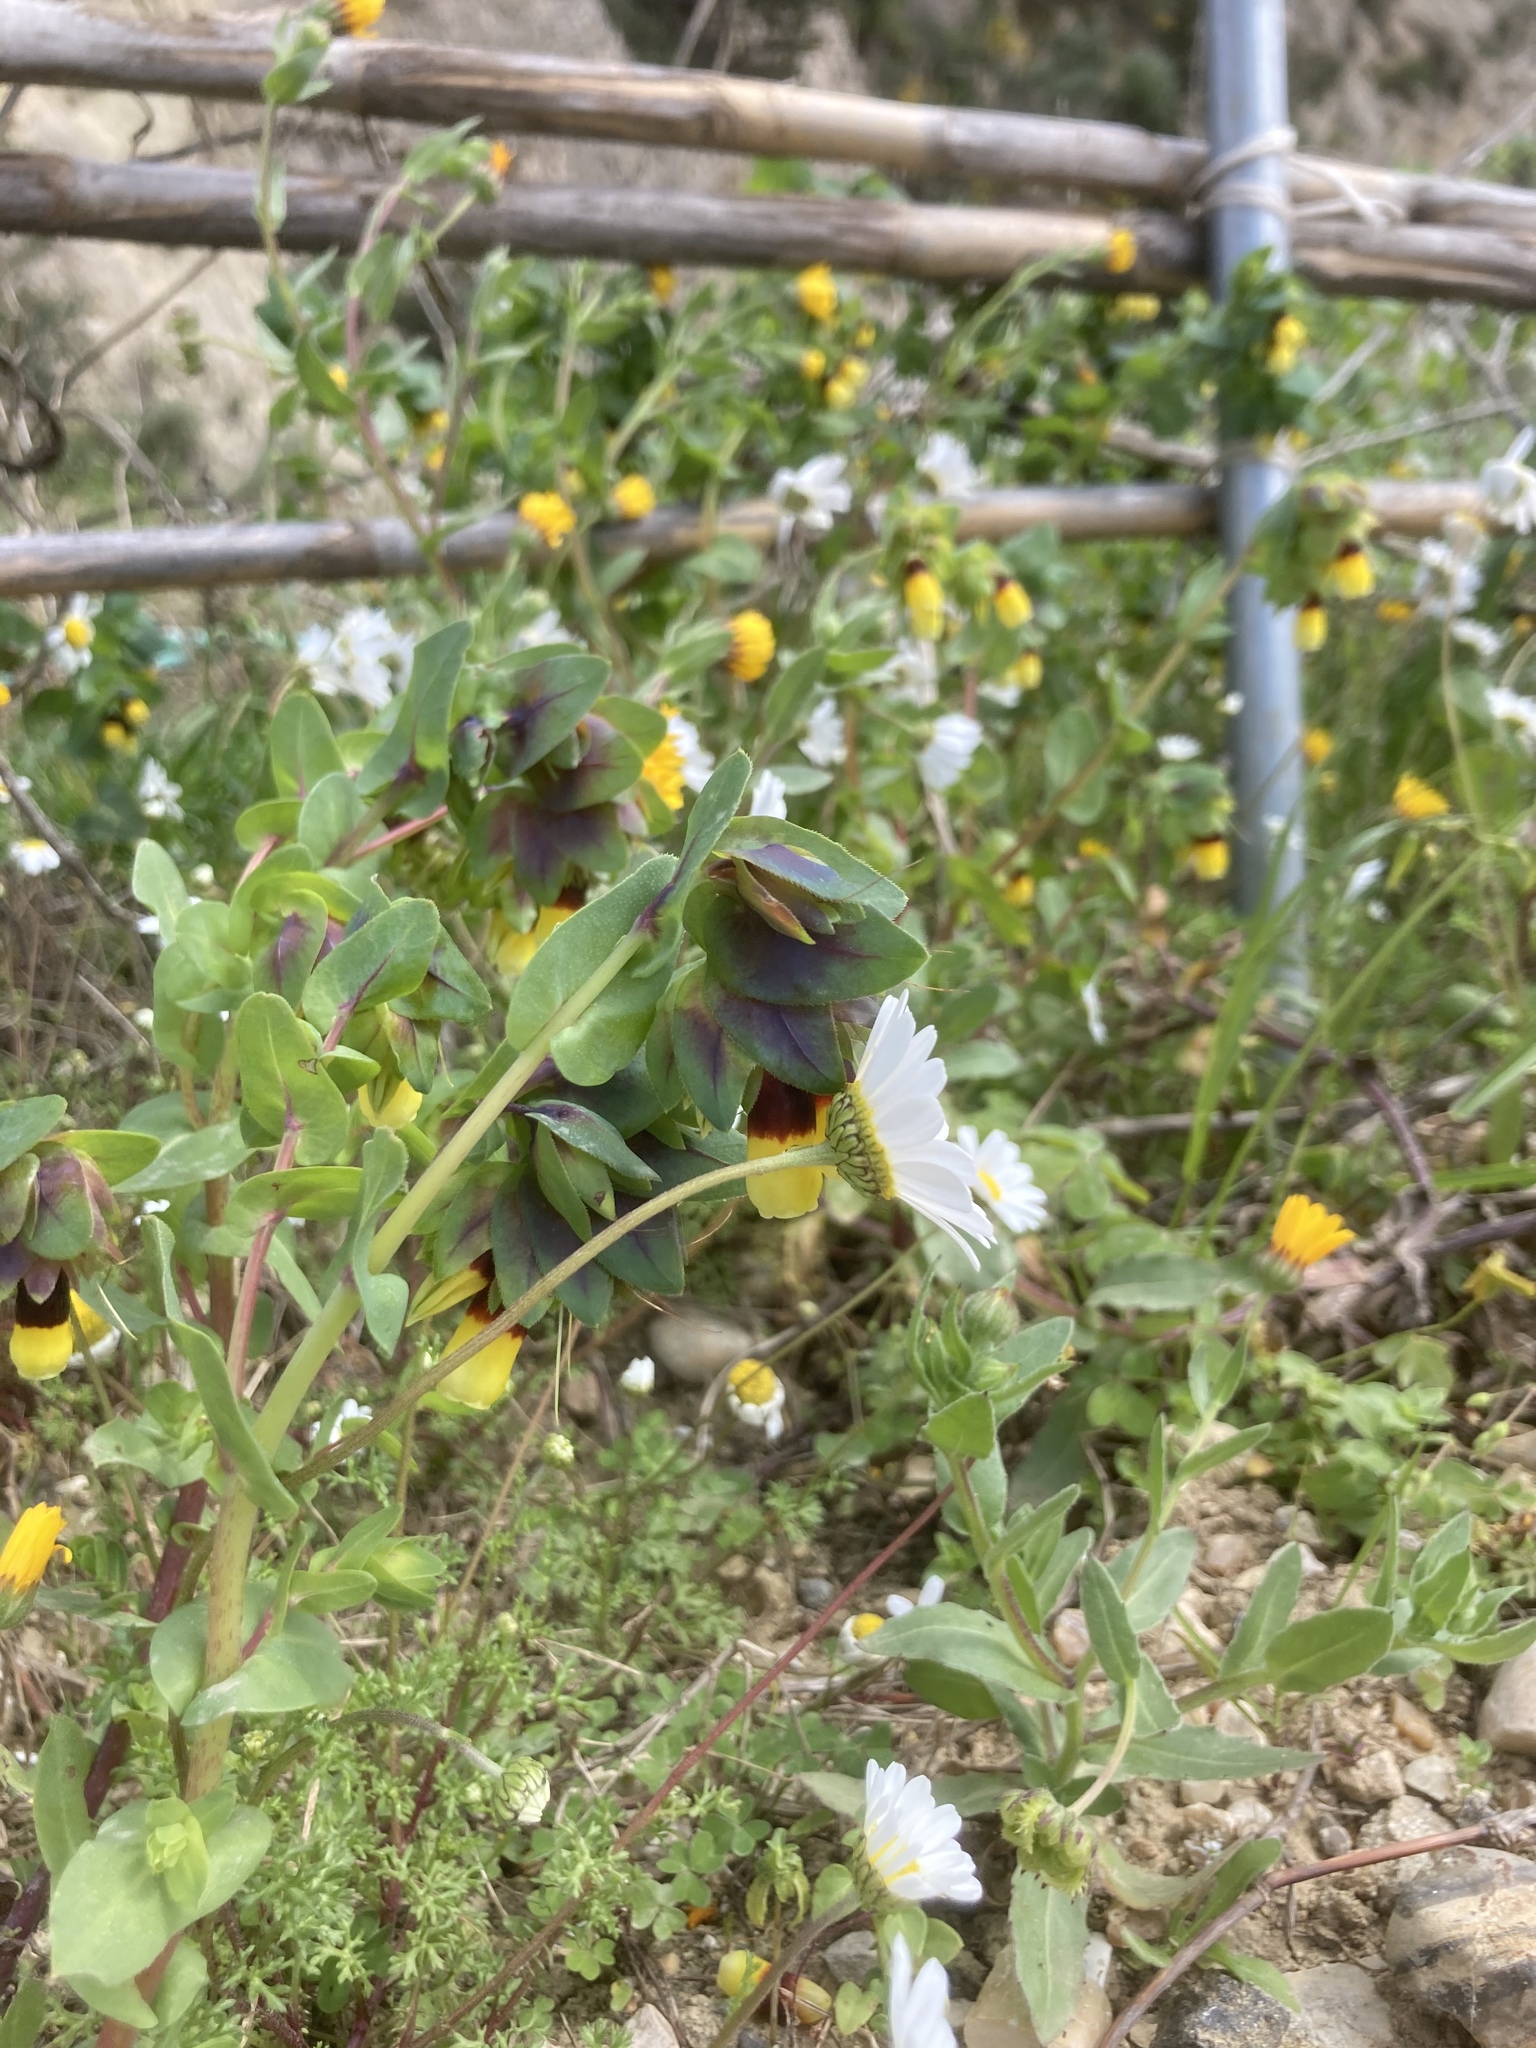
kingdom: Plantae
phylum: Tracheophyta
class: Magnoliopsida
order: Boraginales
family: Boraginaceae
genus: Cerinthe
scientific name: Cerinthe major
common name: Greater honeywort
